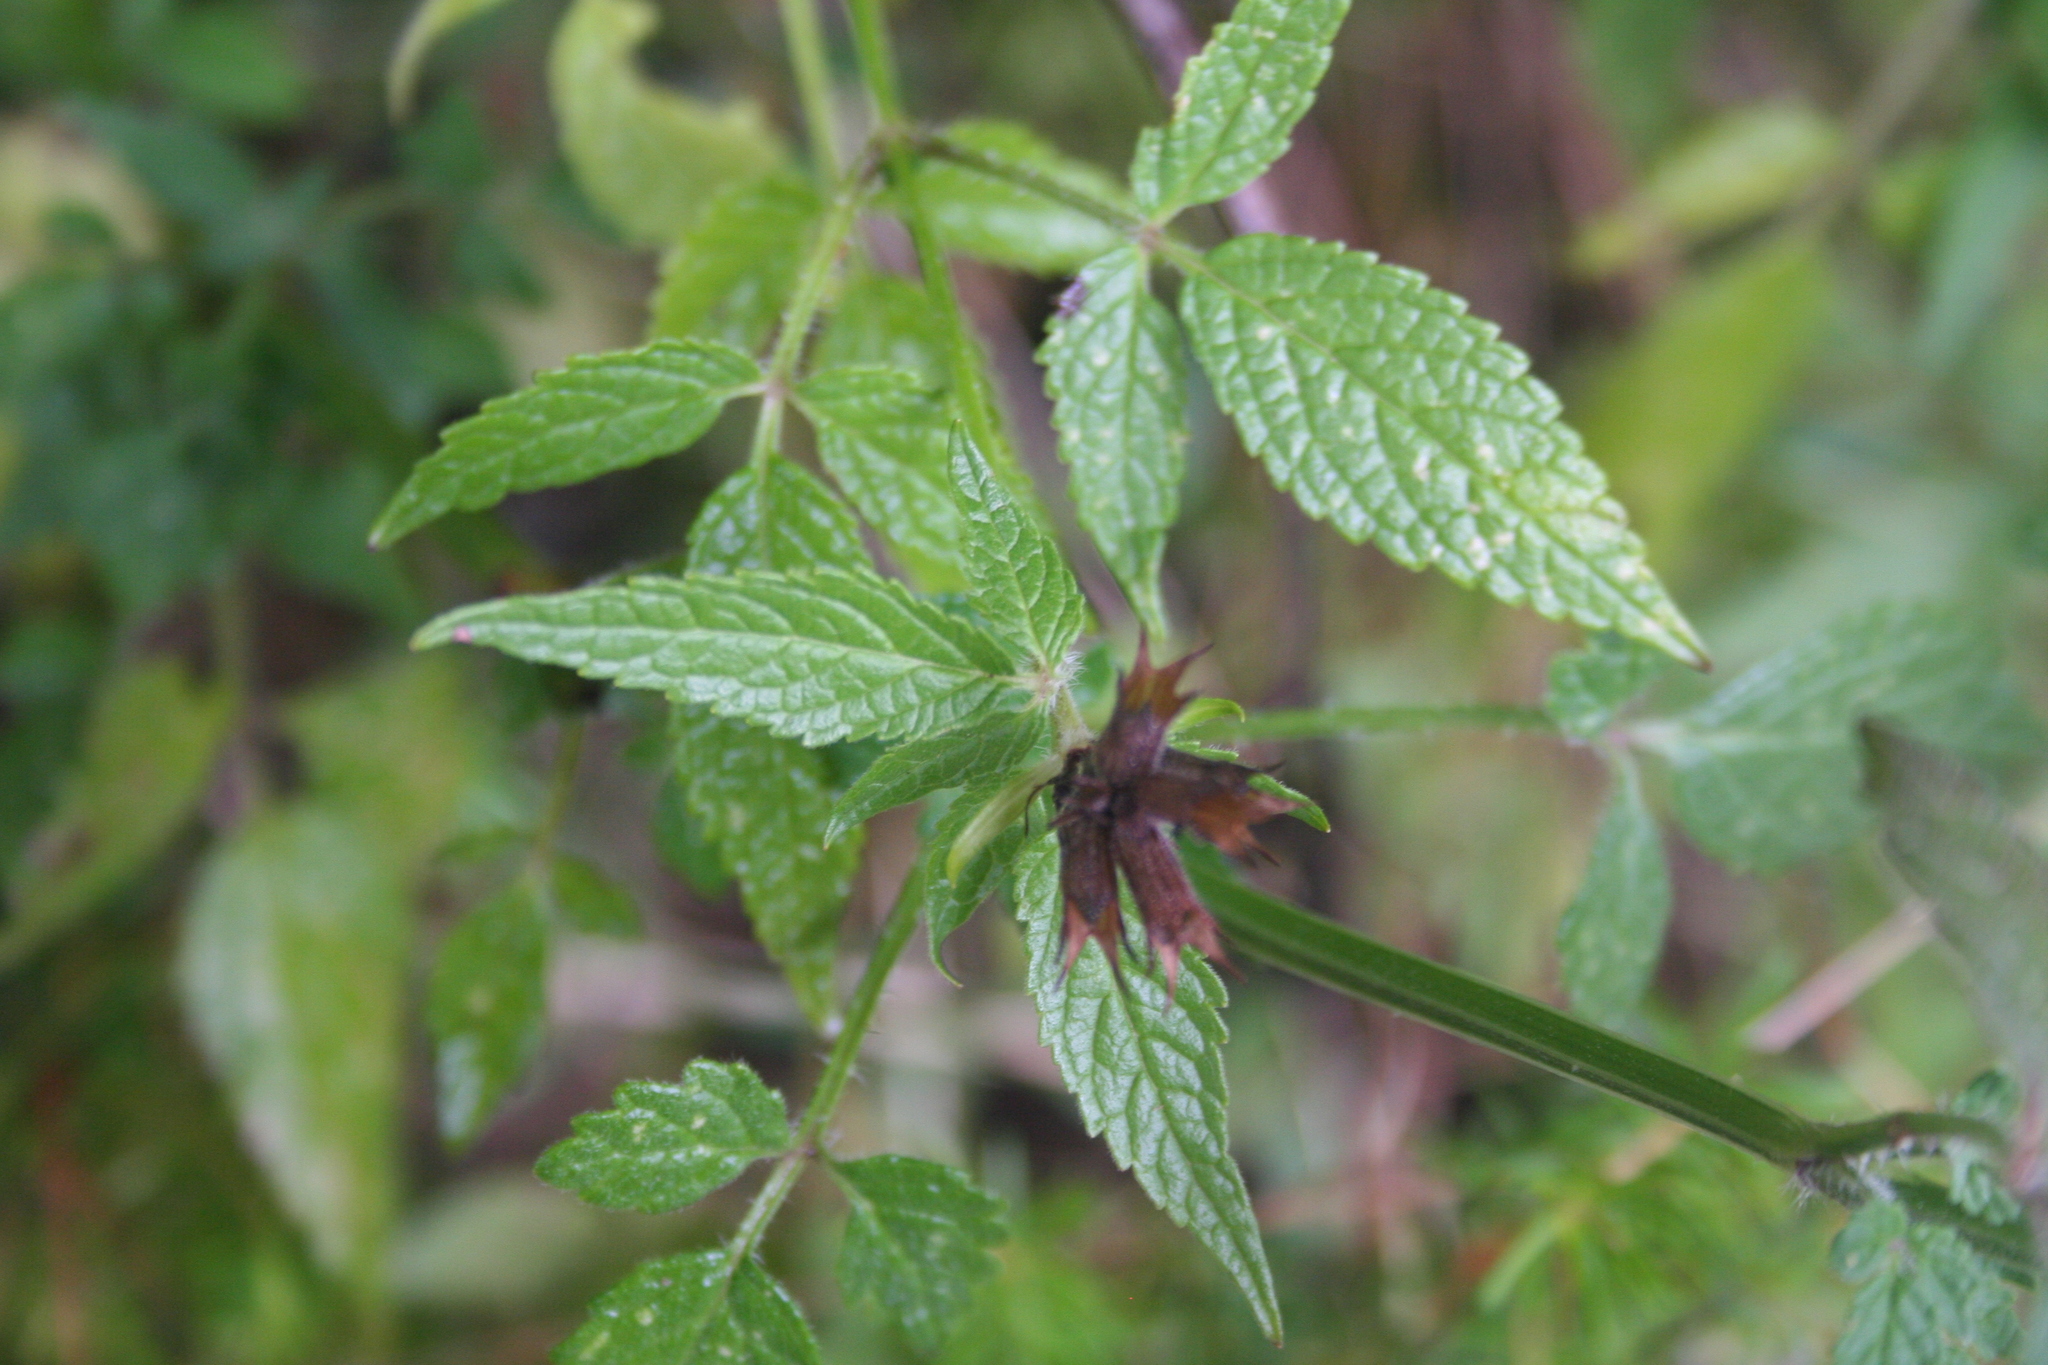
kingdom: Plantae
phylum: Tracheophyta
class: Magnoliopsida
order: Lamiales
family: Lamiaceae
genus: Cedronella
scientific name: Cedronella canariensis
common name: Canary islands balm
